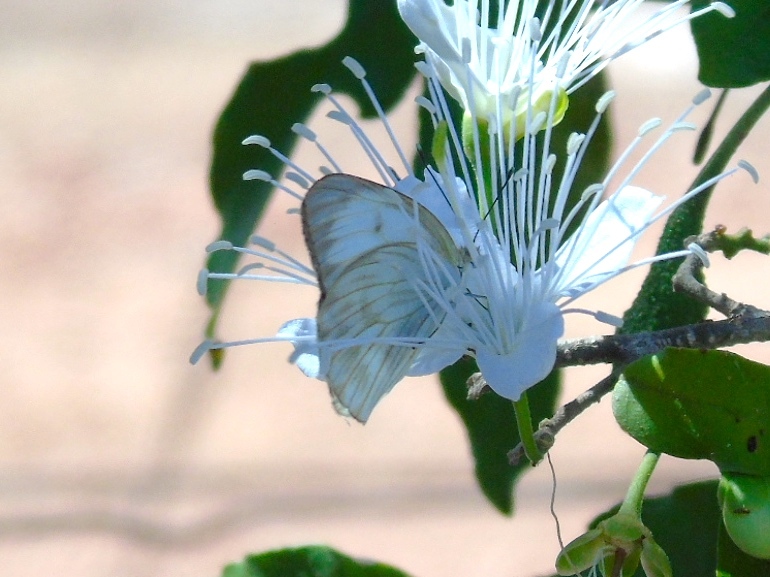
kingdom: Animalia
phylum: Arthropoda
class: Insecta
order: Lepidoptera
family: Pieridae
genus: Ascia
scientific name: Ascia monuste
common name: Great southern white
